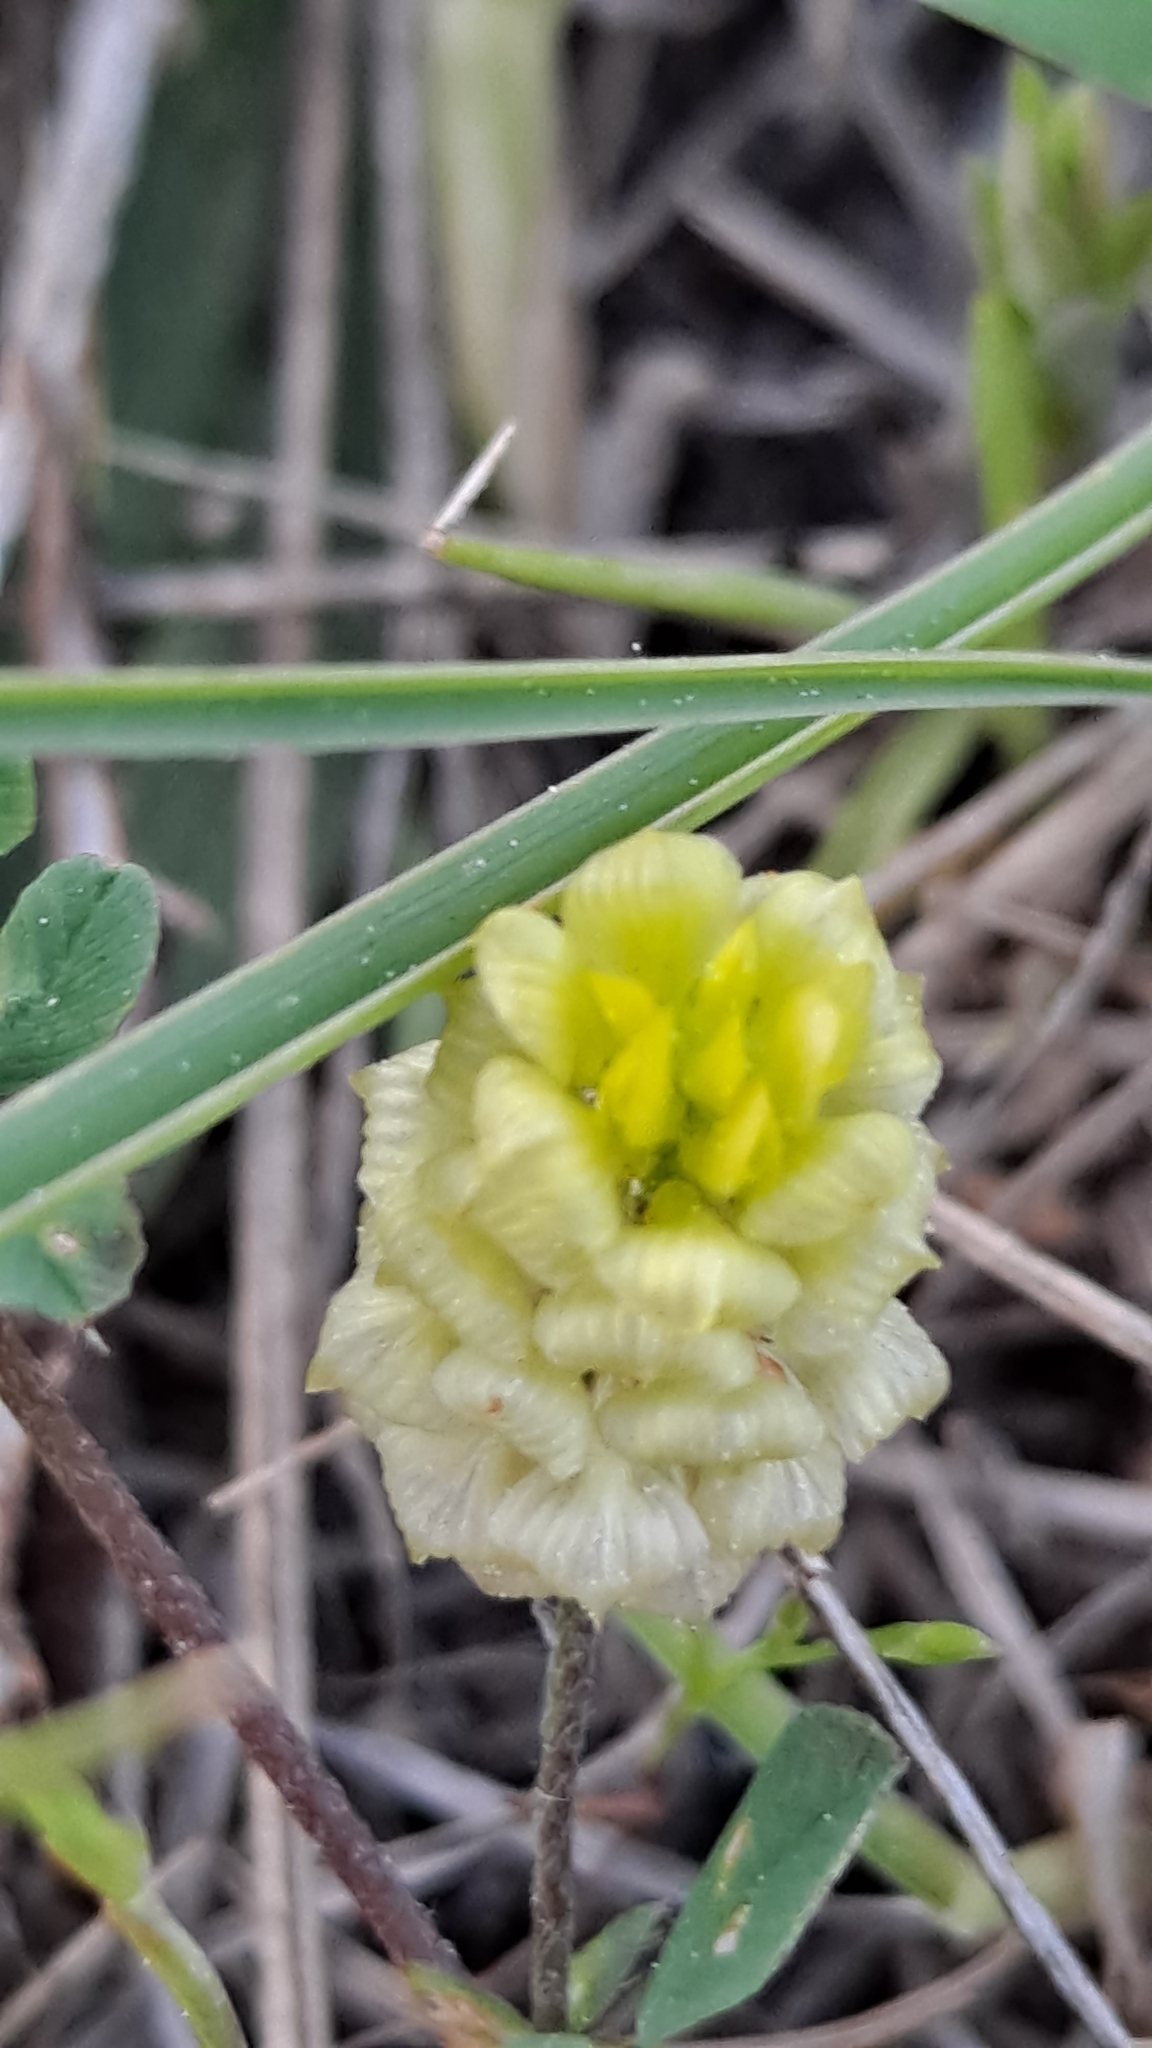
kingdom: Plantae
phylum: Tracheophyta
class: Magnoliopsida
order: Fabales
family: Fabaceae
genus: Trifolium
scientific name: Trifolium campestre
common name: Field clover
